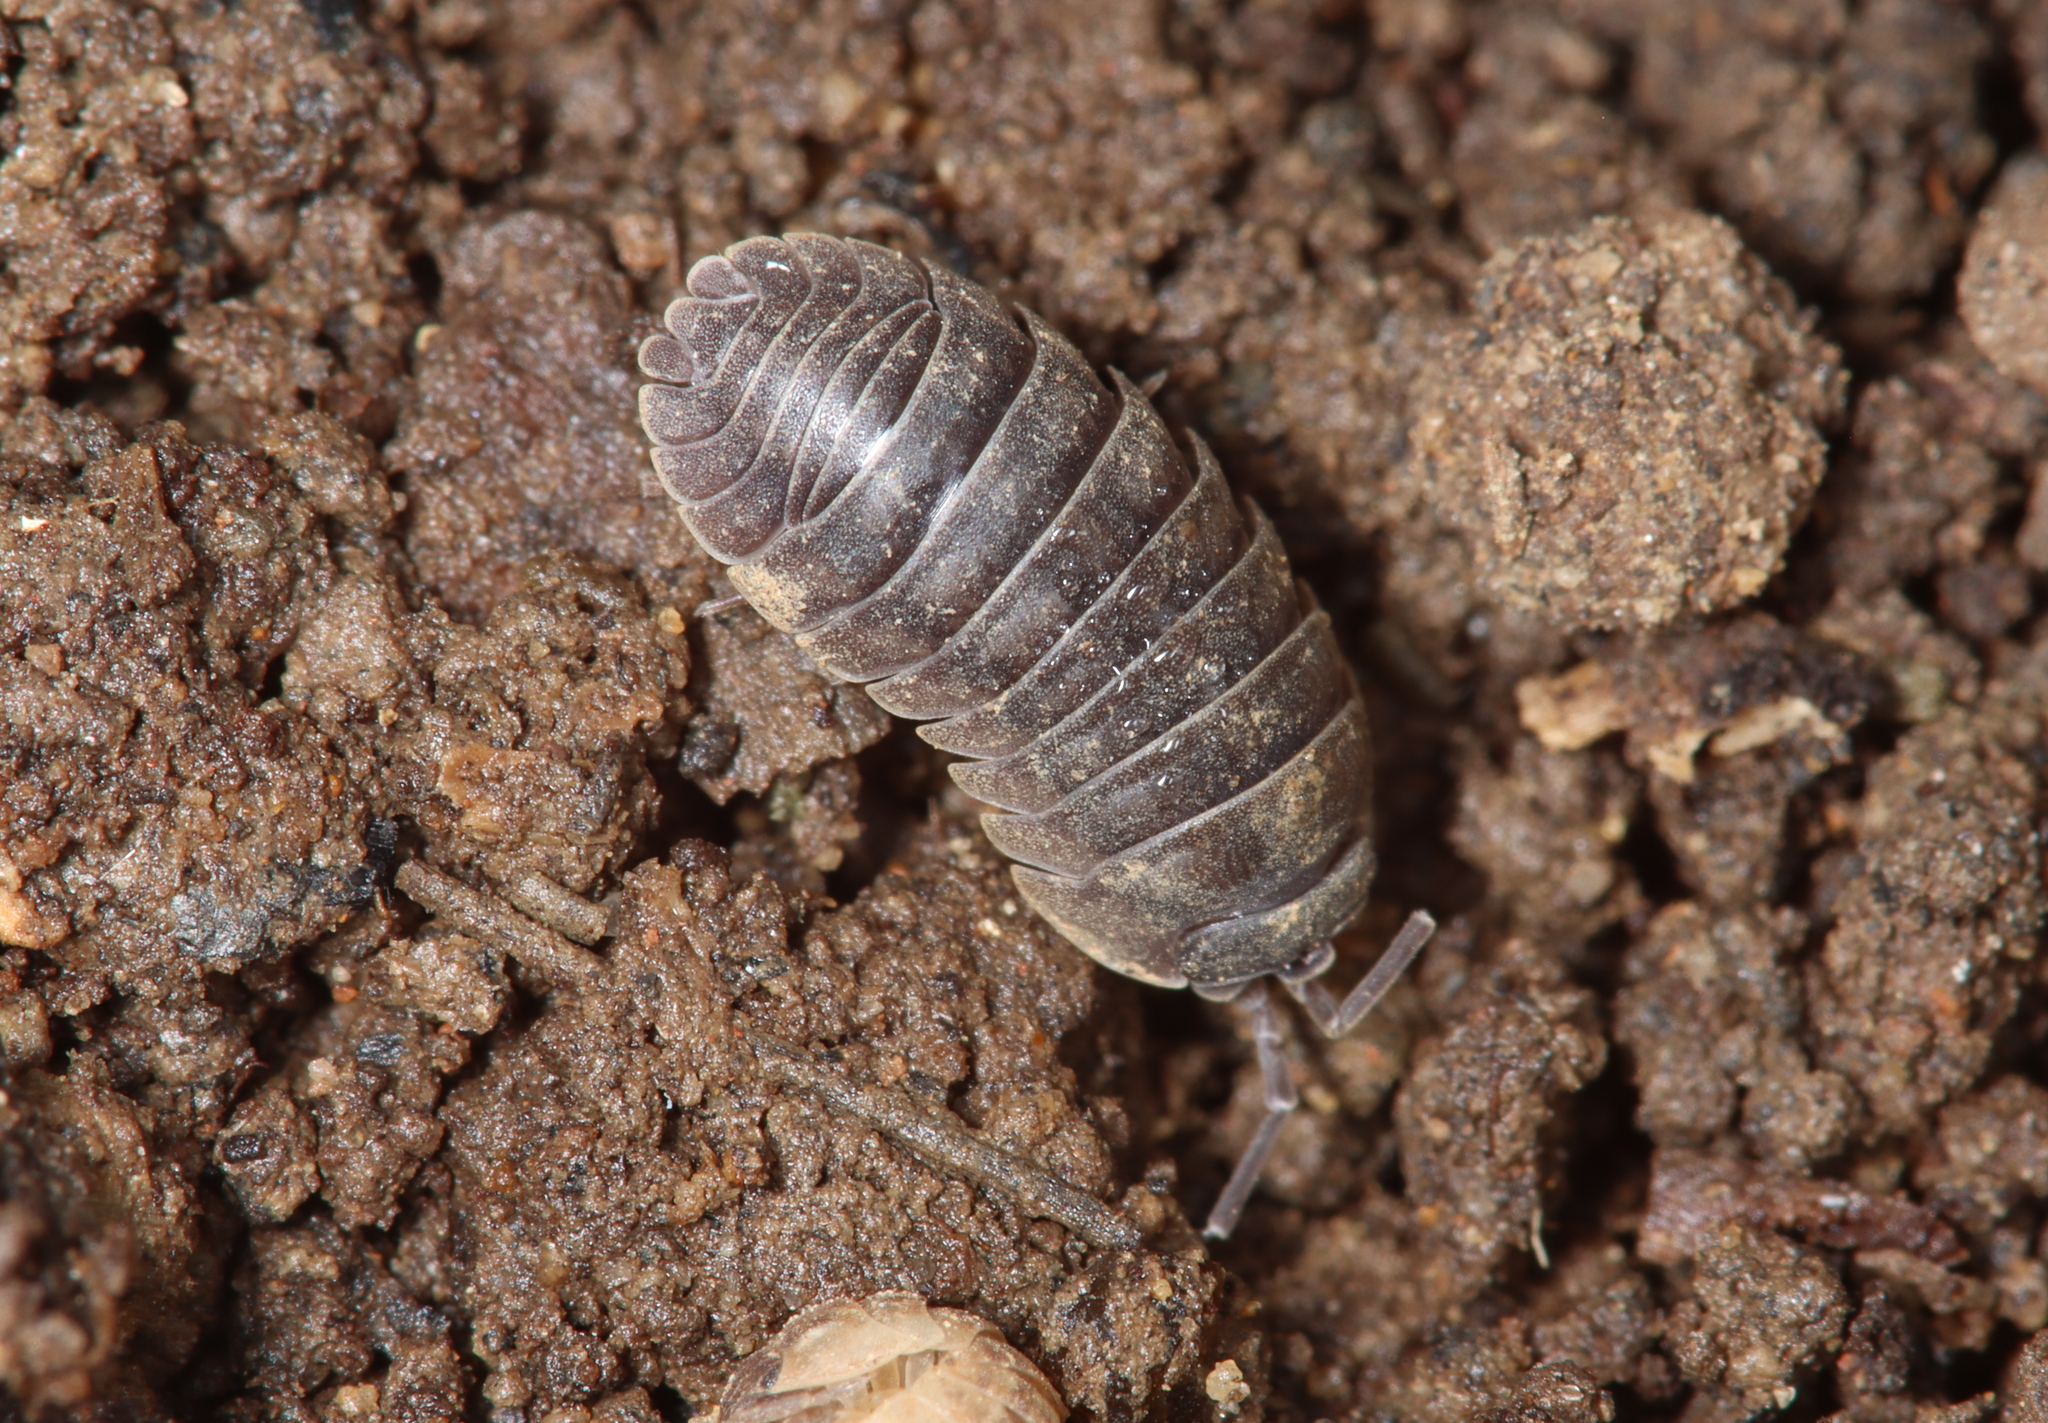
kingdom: Animalia
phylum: Arthropoda
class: Malacostraca
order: Isopoda
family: Armadillidiidae
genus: Armadillidium
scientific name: Armadillidium nasatum
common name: Isopod
